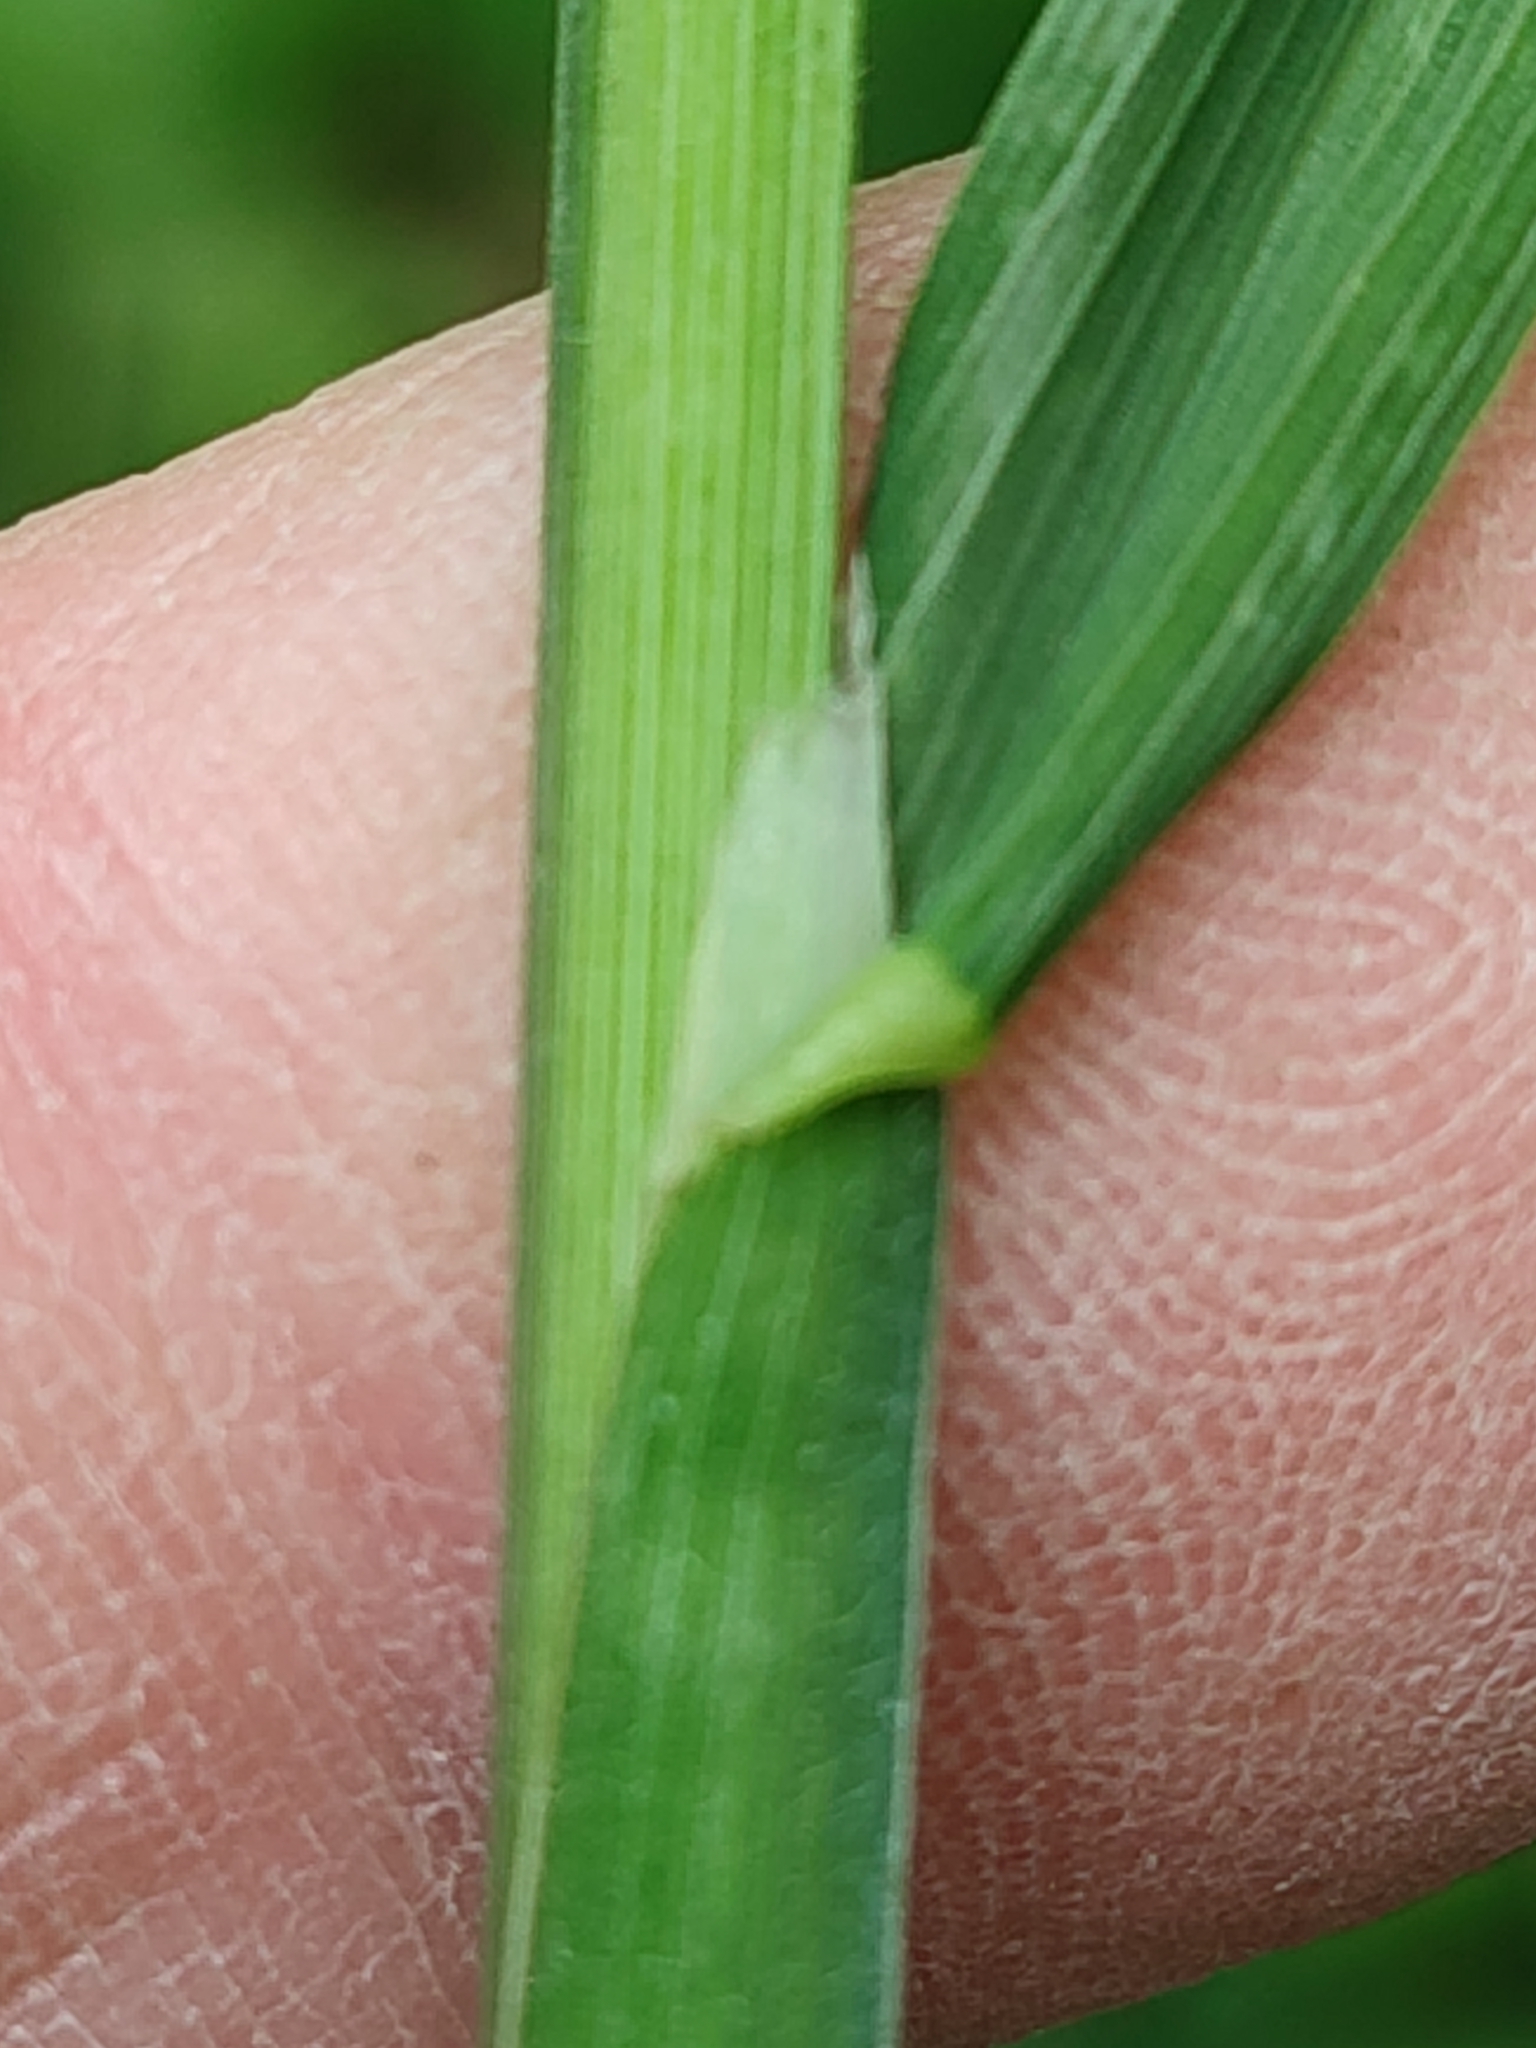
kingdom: Plantae
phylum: Tracheophyta
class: Liliopsida
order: Poales
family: Poaceae
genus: Dactylis
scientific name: Dactylis glomerata
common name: Orchardgrass
